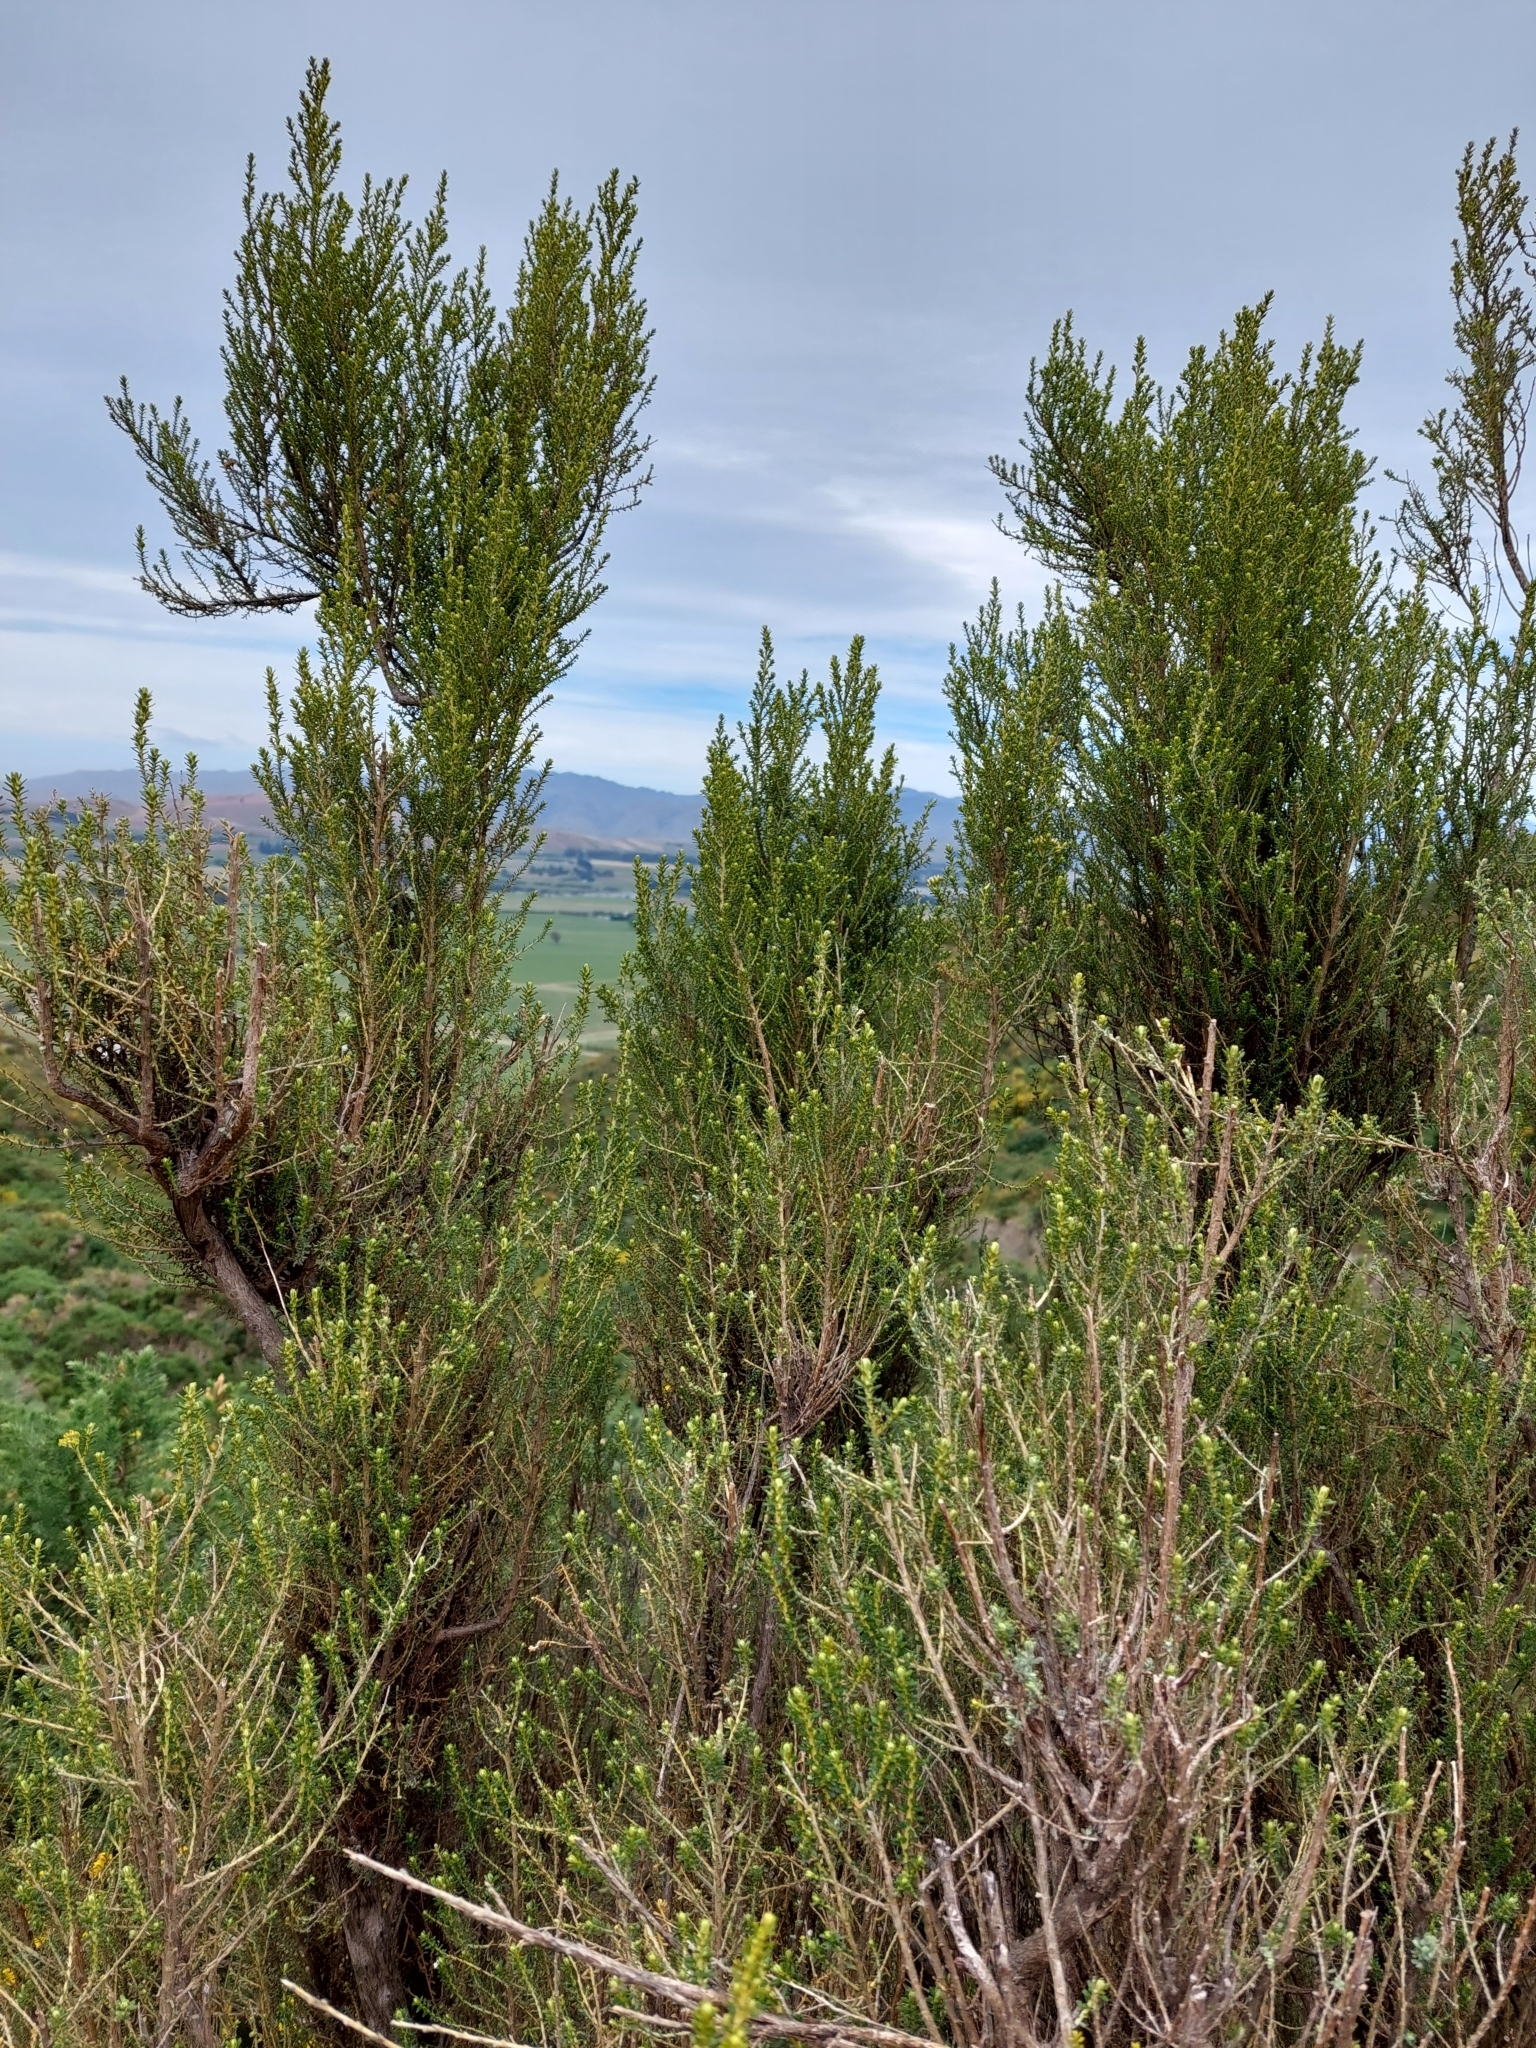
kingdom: Plantae
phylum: Tracheophyta
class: Magnoliopsida
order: Asterales
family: Asteraceae
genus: Ozothamnus
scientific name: Ozothamnus leptophyllus
